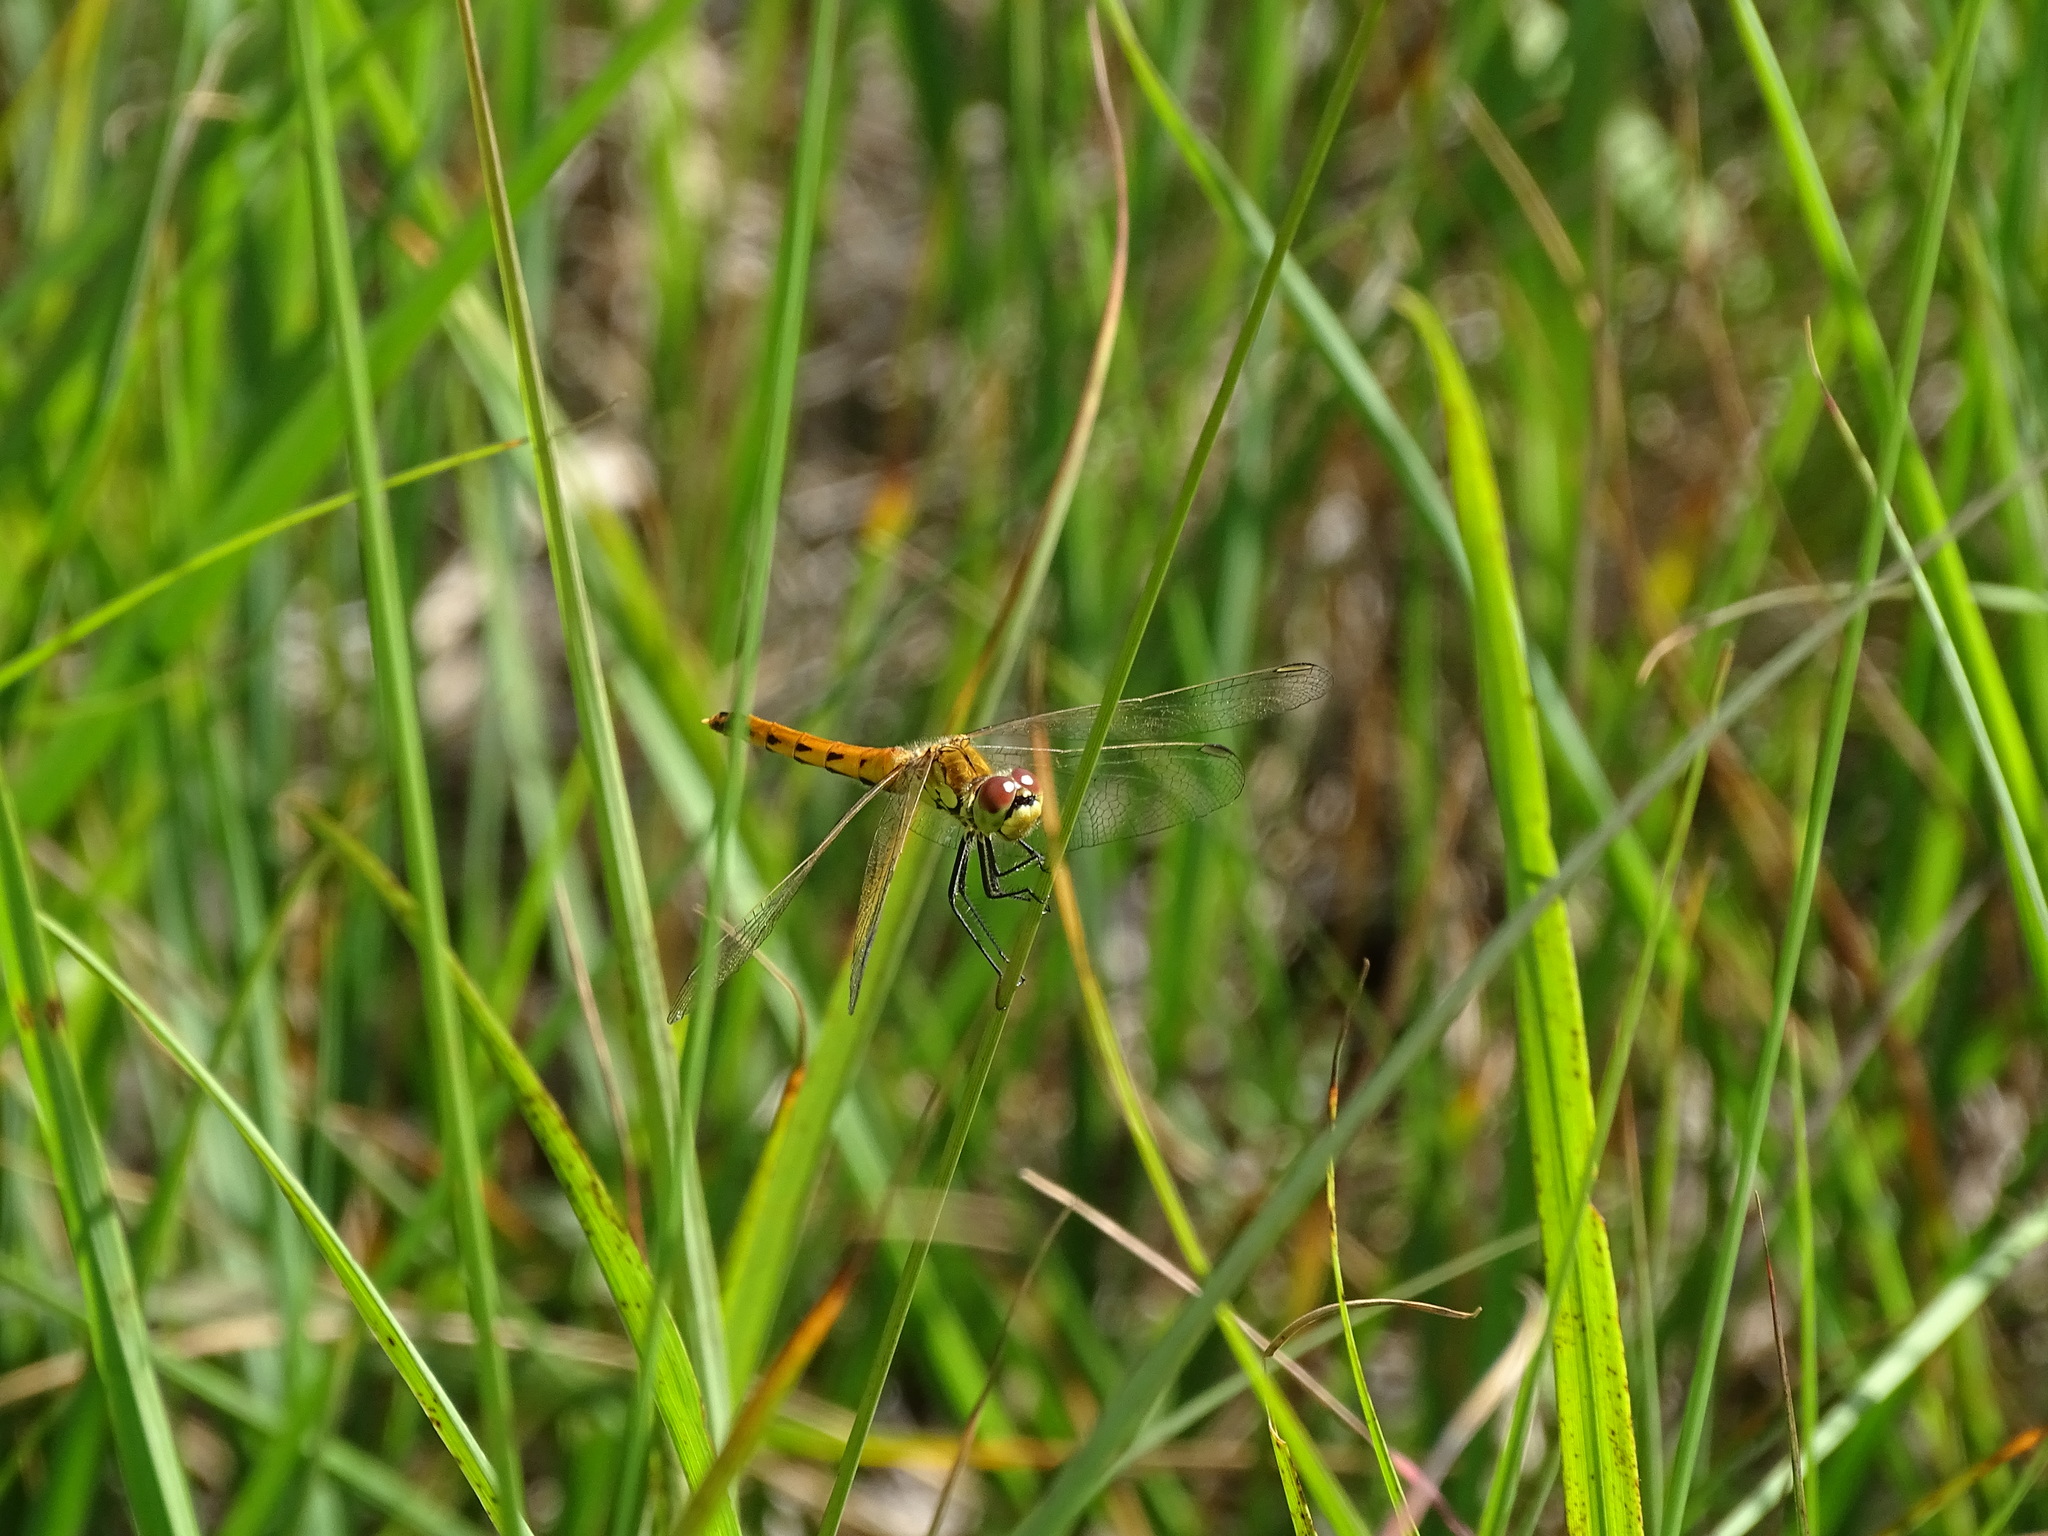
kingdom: Animalia
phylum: Arthropoda
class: Insecta
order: Odonata
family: Libellulidae
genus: Sympetrum
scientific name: Sympetrum depressiusculum
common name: Spotted darter
